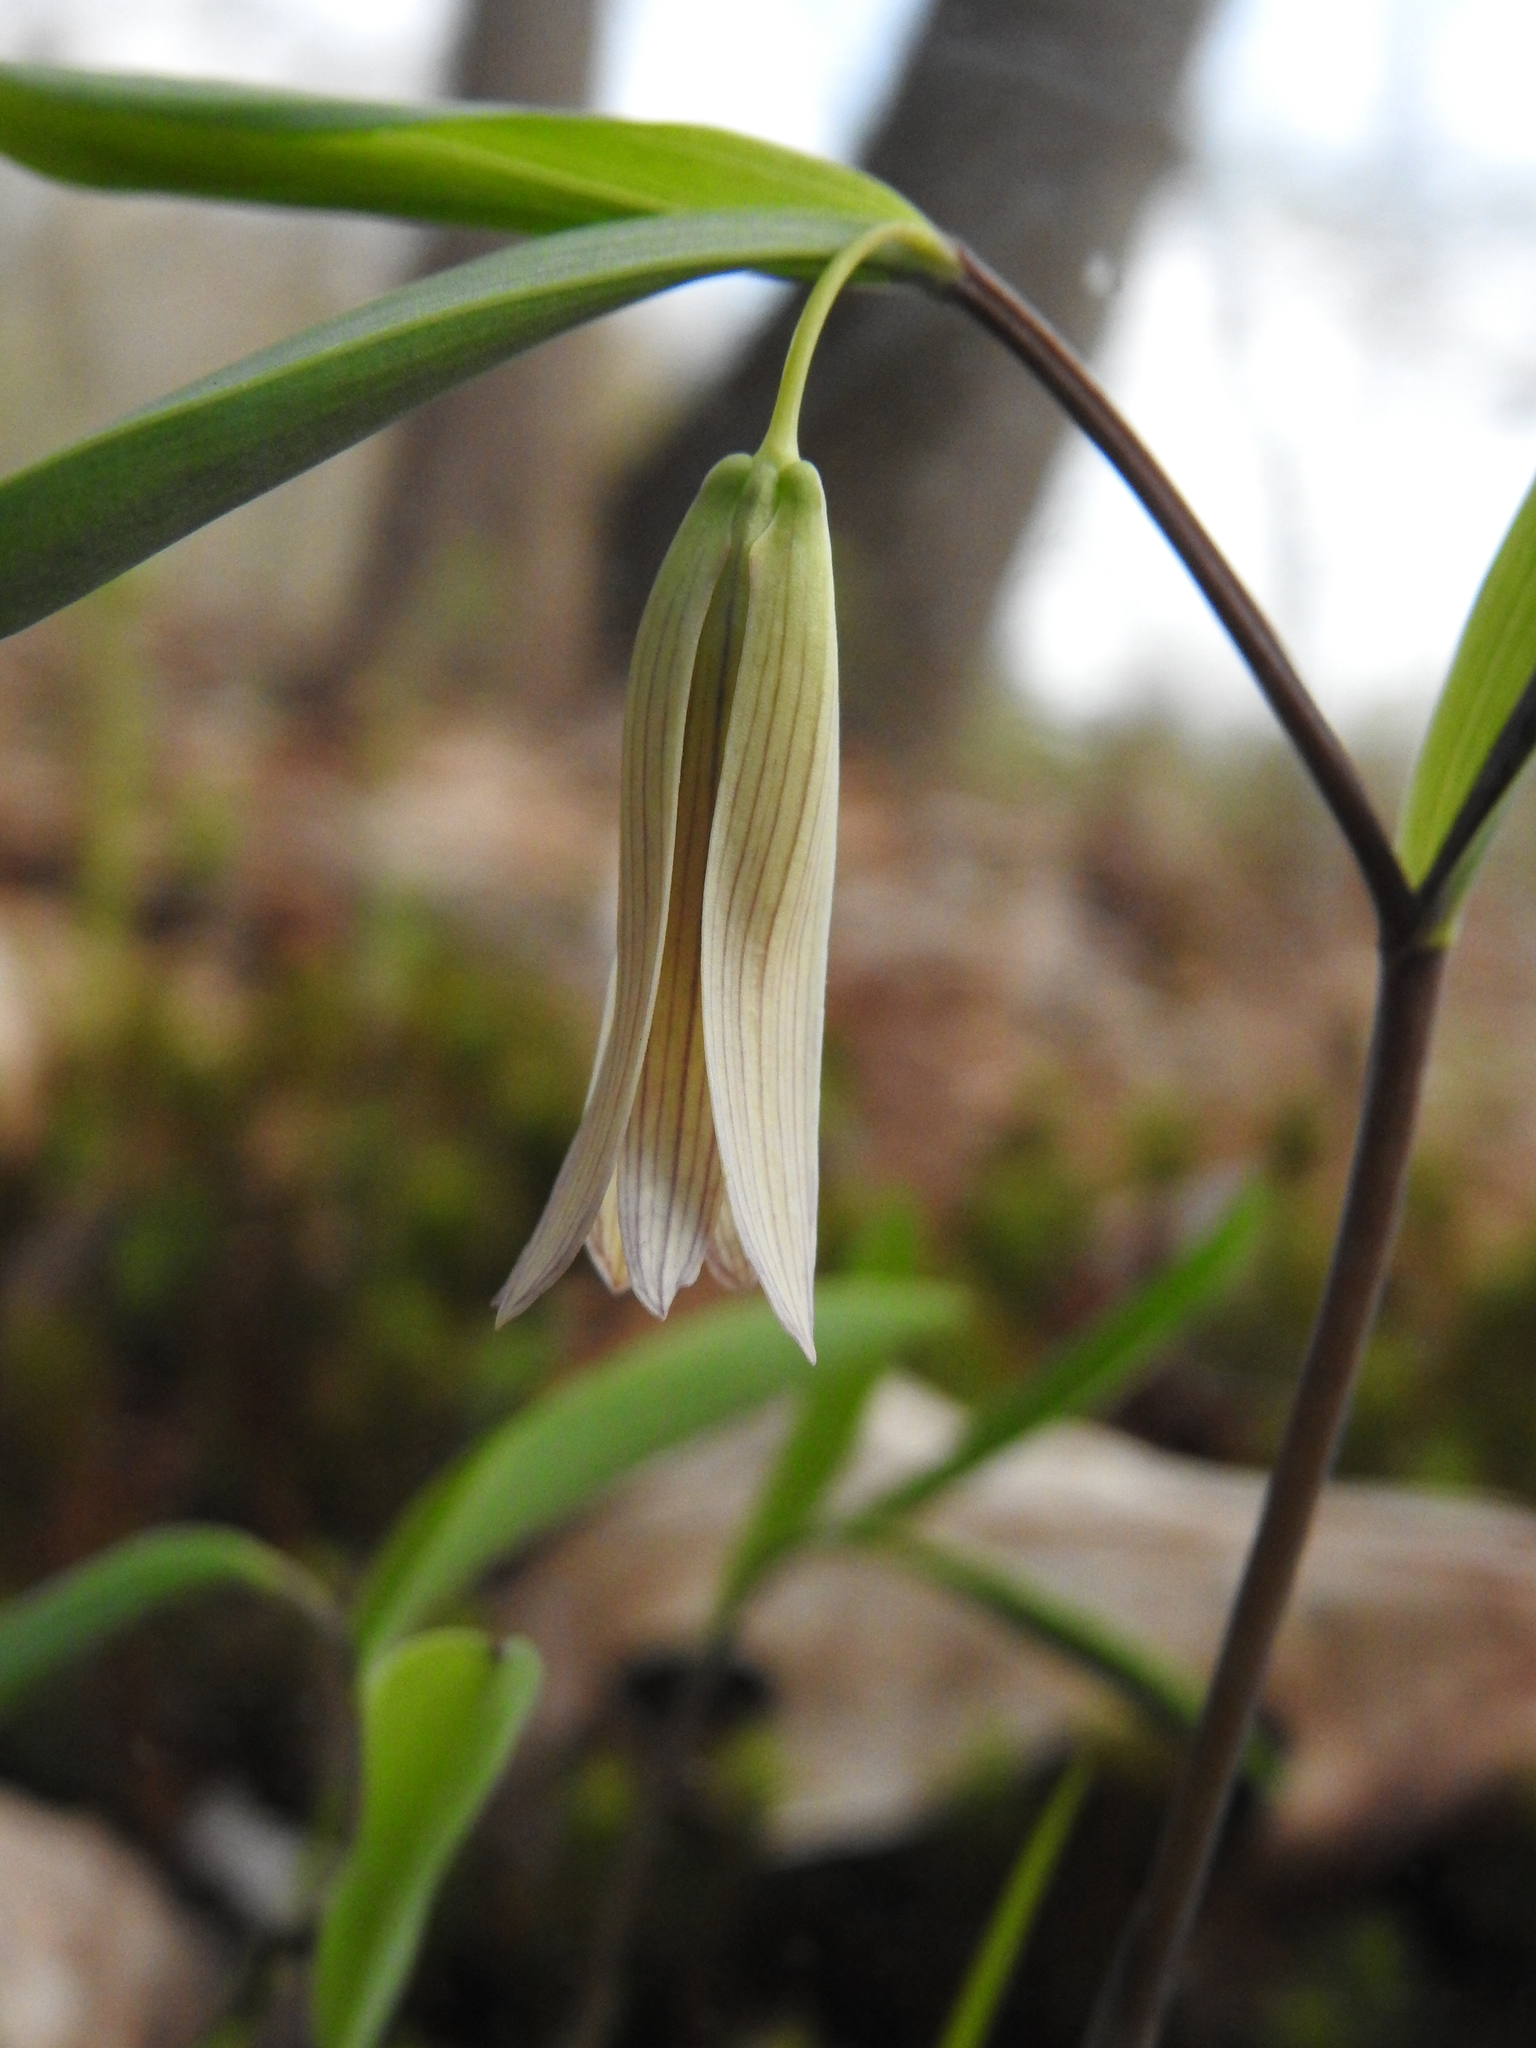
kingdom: Plantae
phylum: Tracheophyta
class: Liliopsida
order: Liliales
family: Colchicaceae
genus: Uvularia
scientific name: Uvularia sessilifolia
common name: Straw-lily
